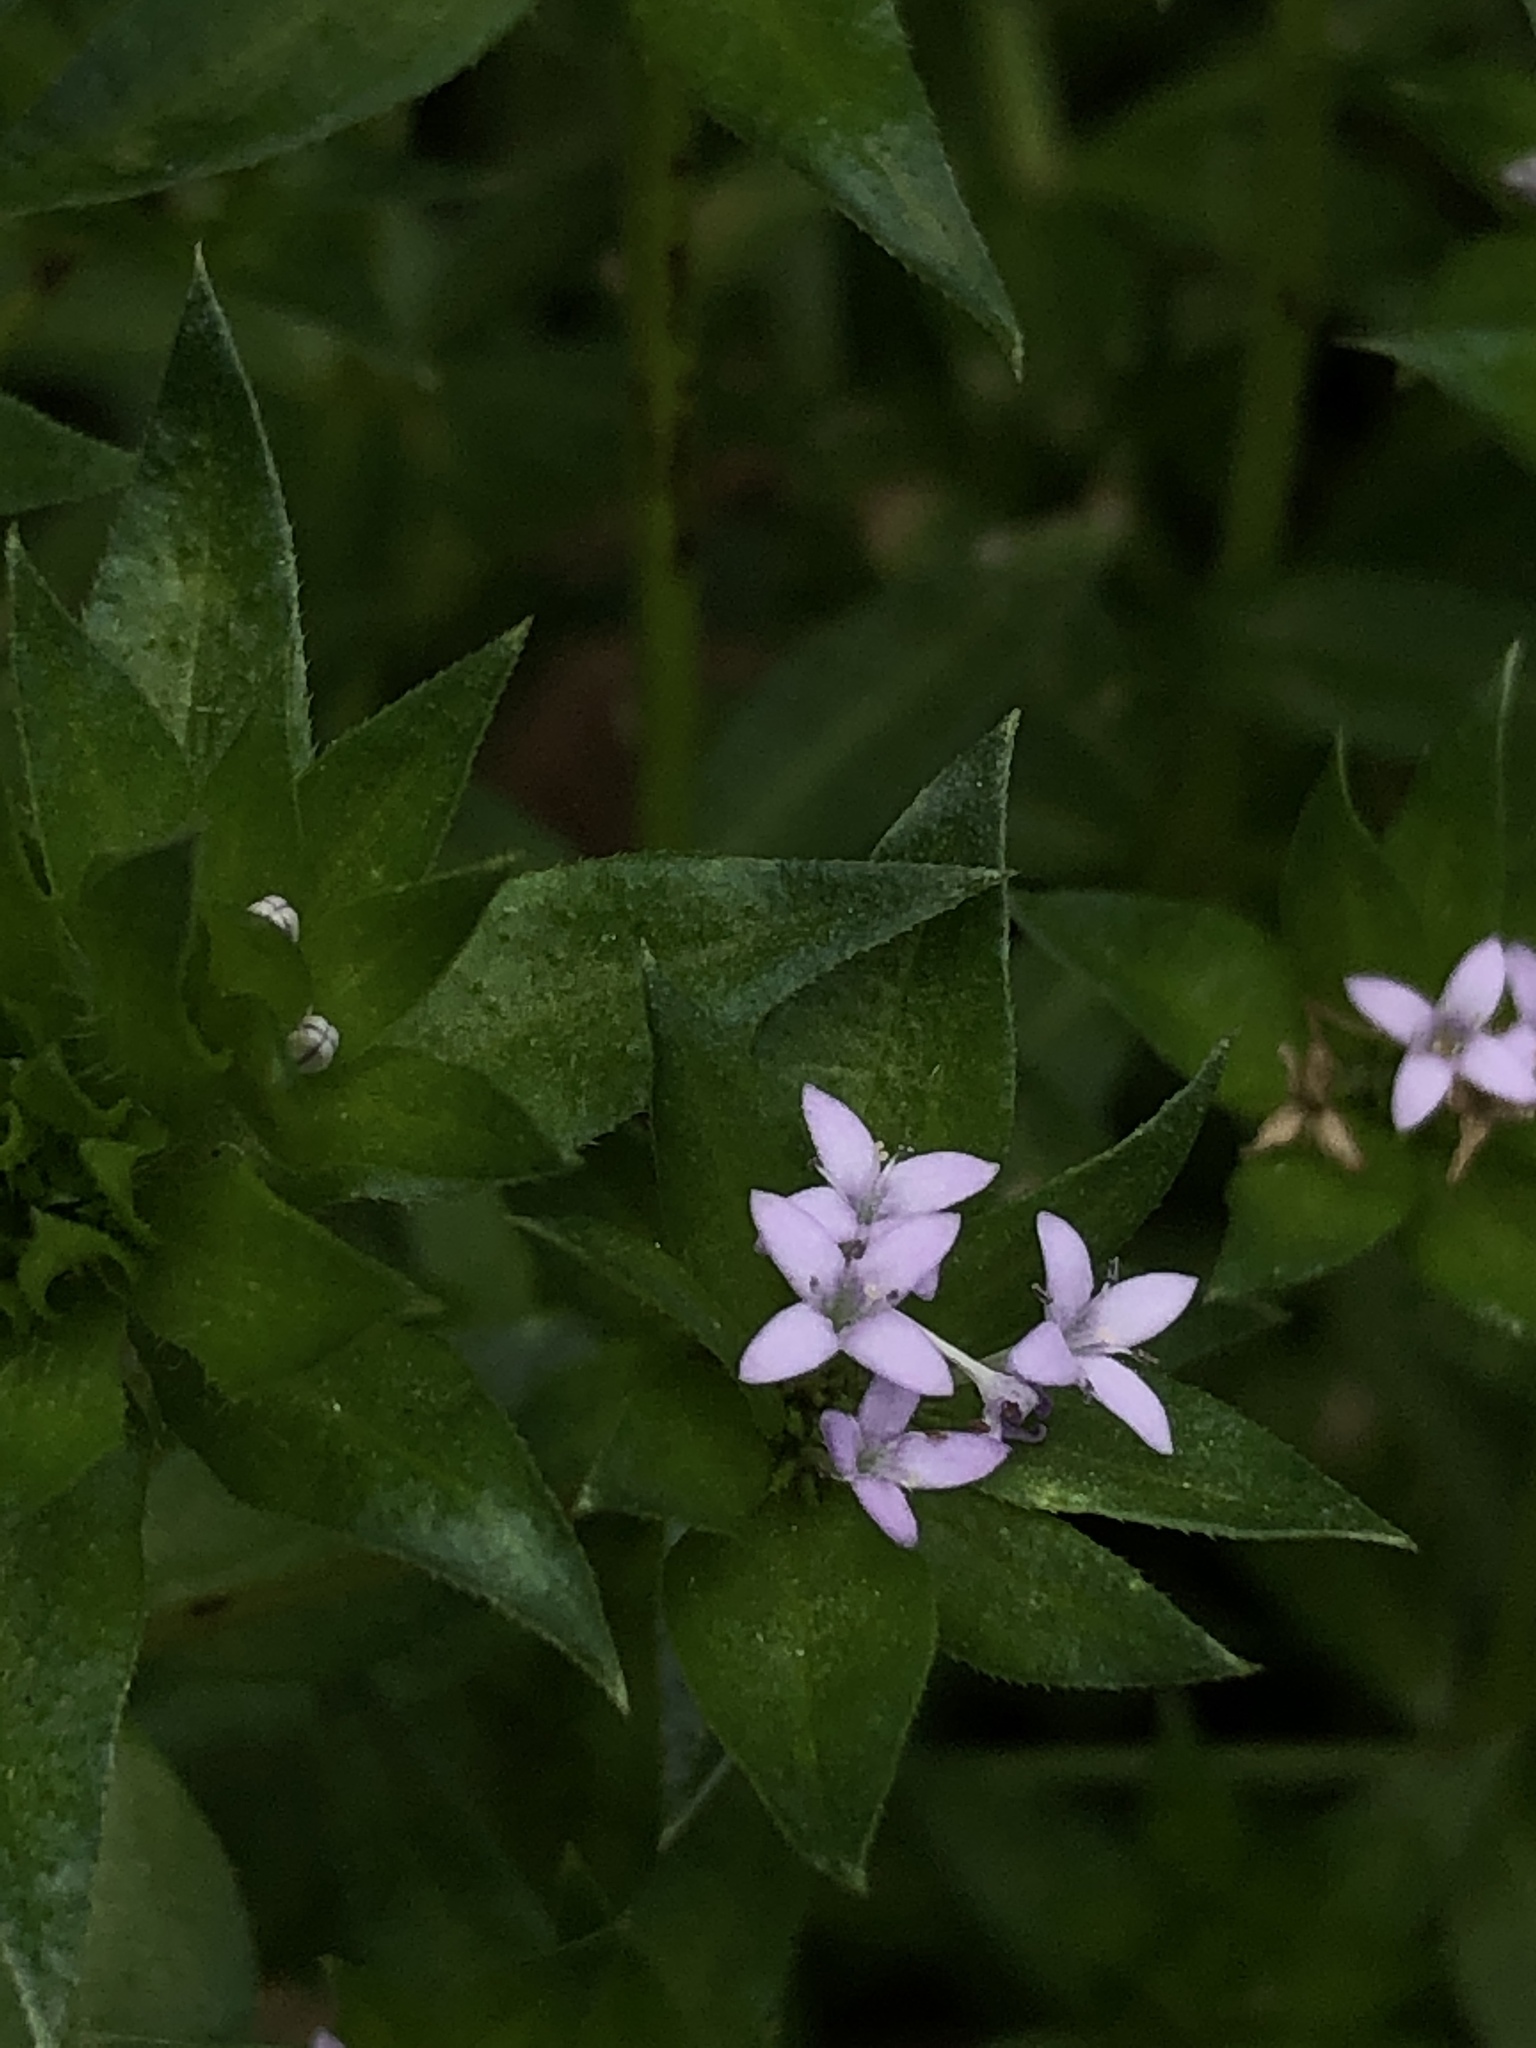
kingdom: Plantae
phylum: Tracheophyta
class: Magnoliopsida
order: Gentianales
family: Rubiaceae
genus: Sherardia
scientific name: Sherardia arvensis
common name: Field madder
